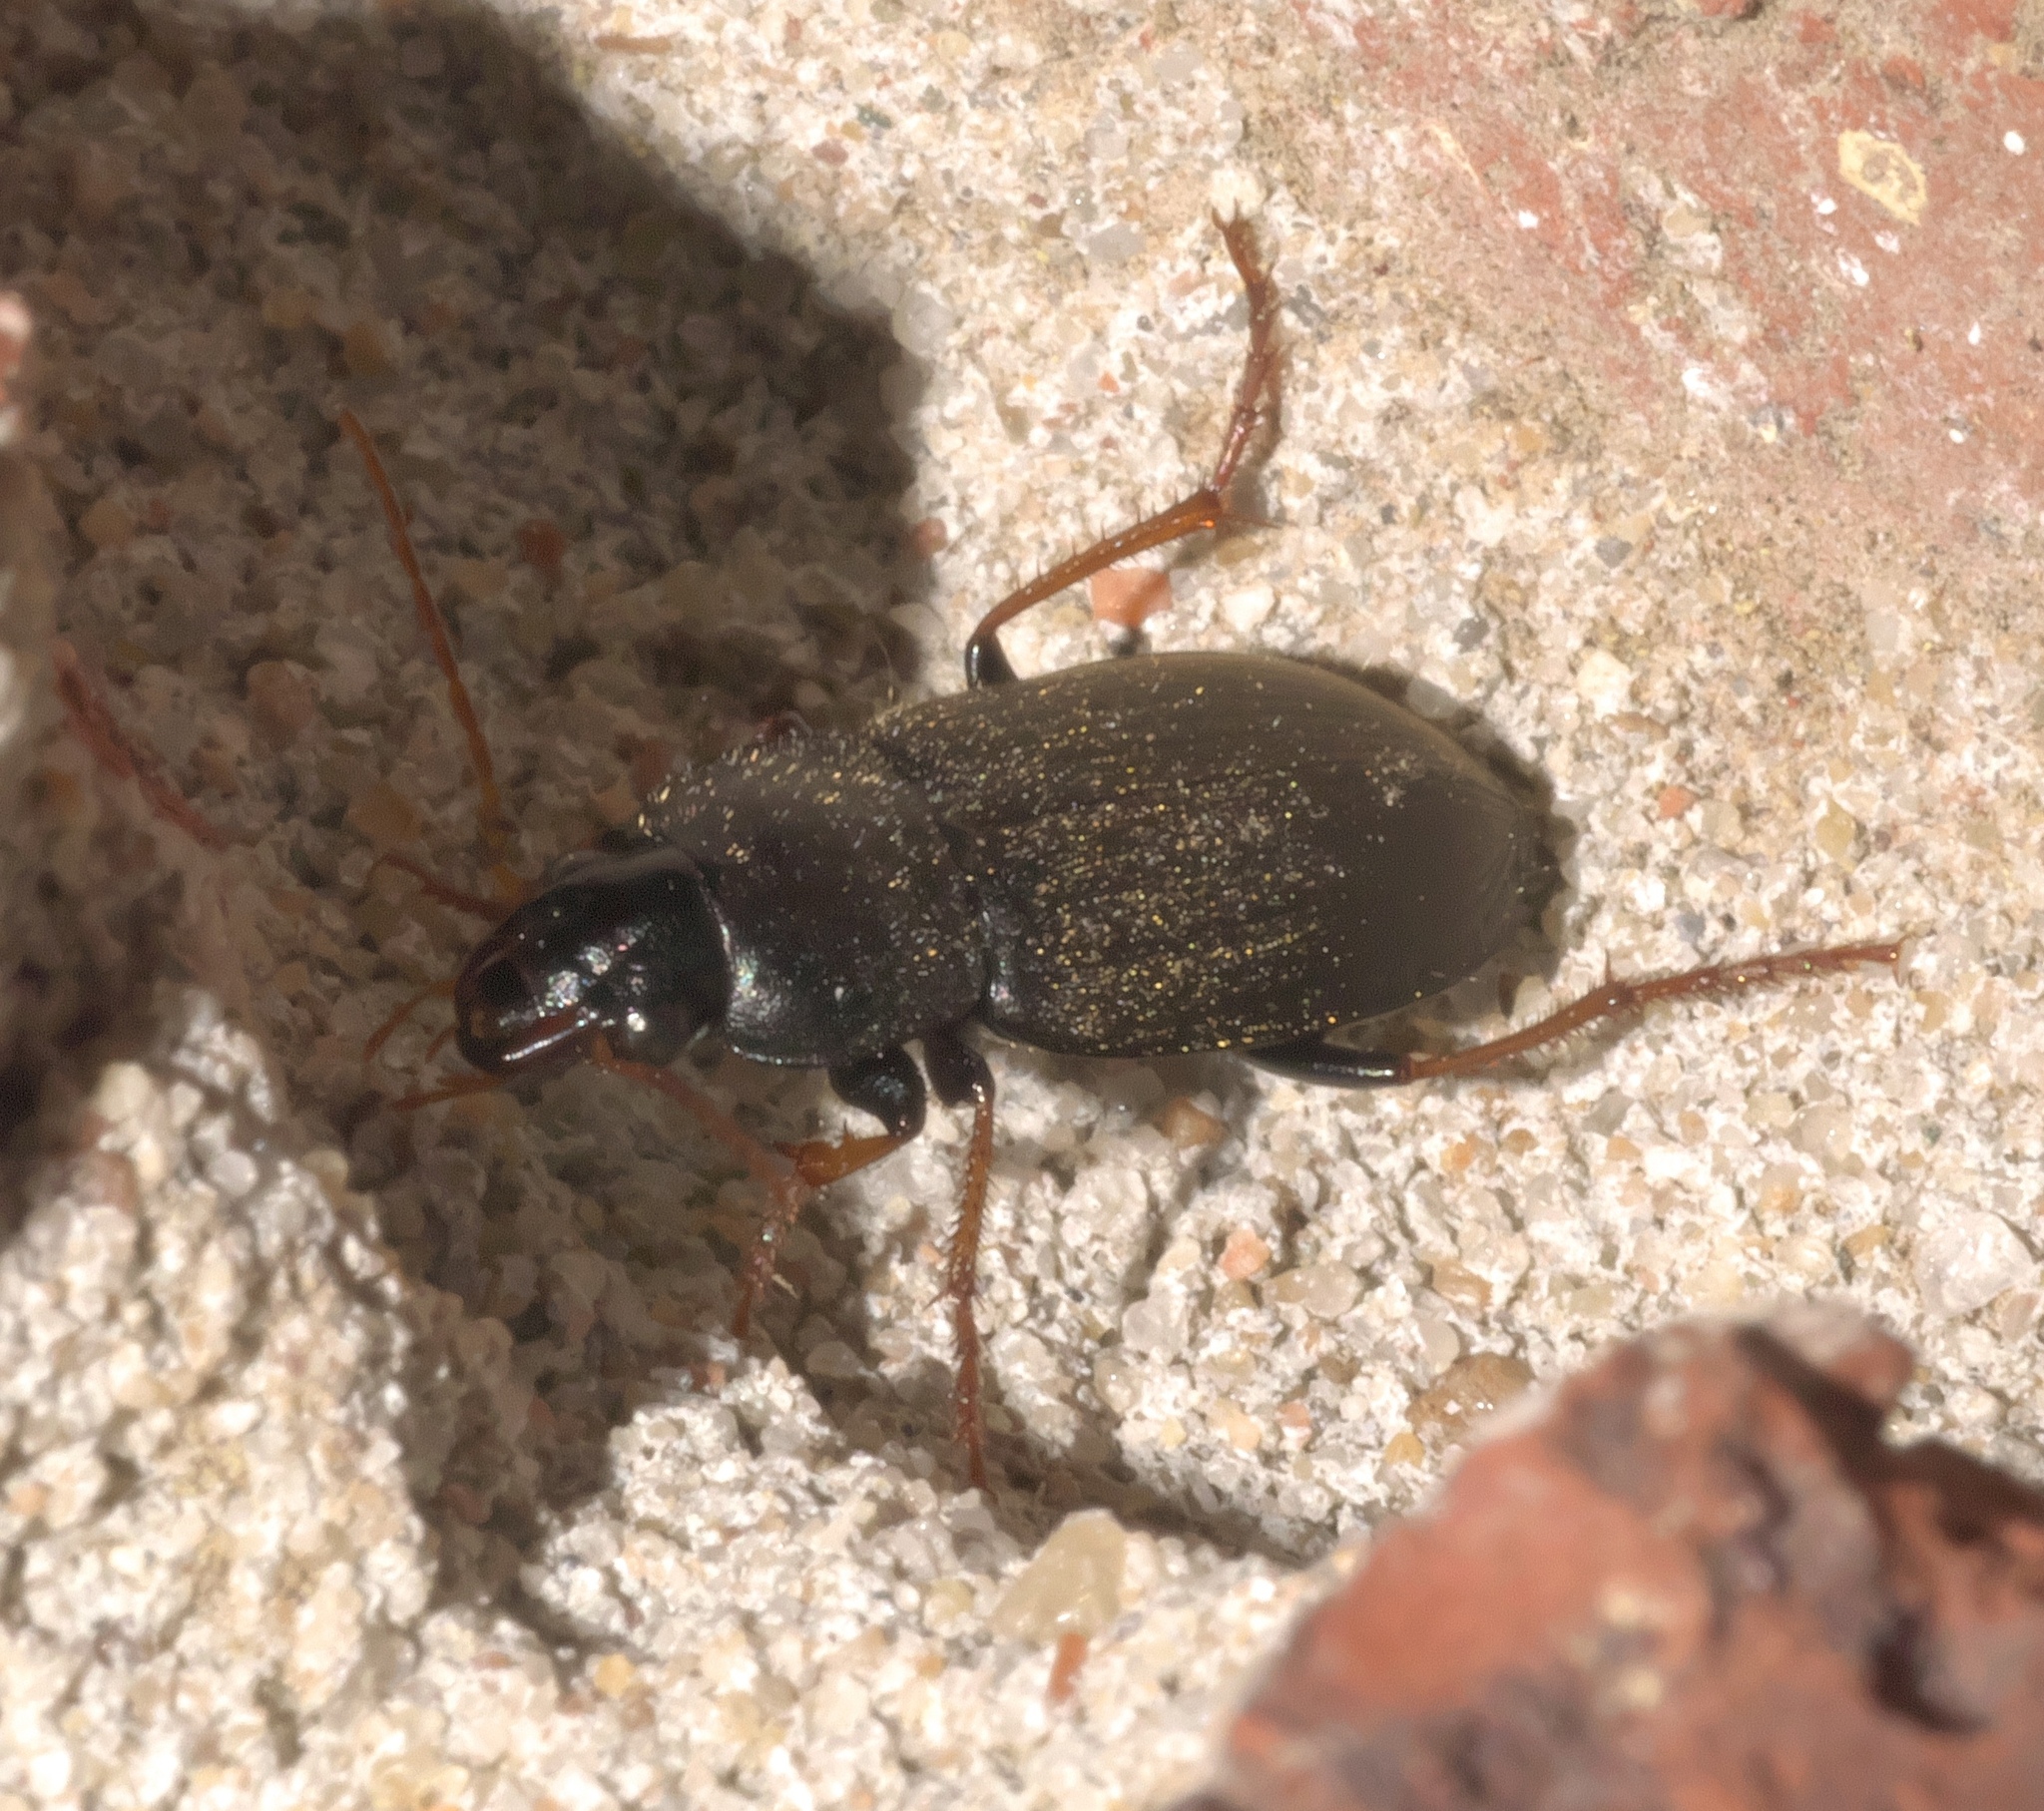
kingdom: Animalia
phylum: Arthropoda
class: Insecta
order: Coleoptera
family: Carabidae
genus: Amphasia
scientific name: Amphasia sericea
